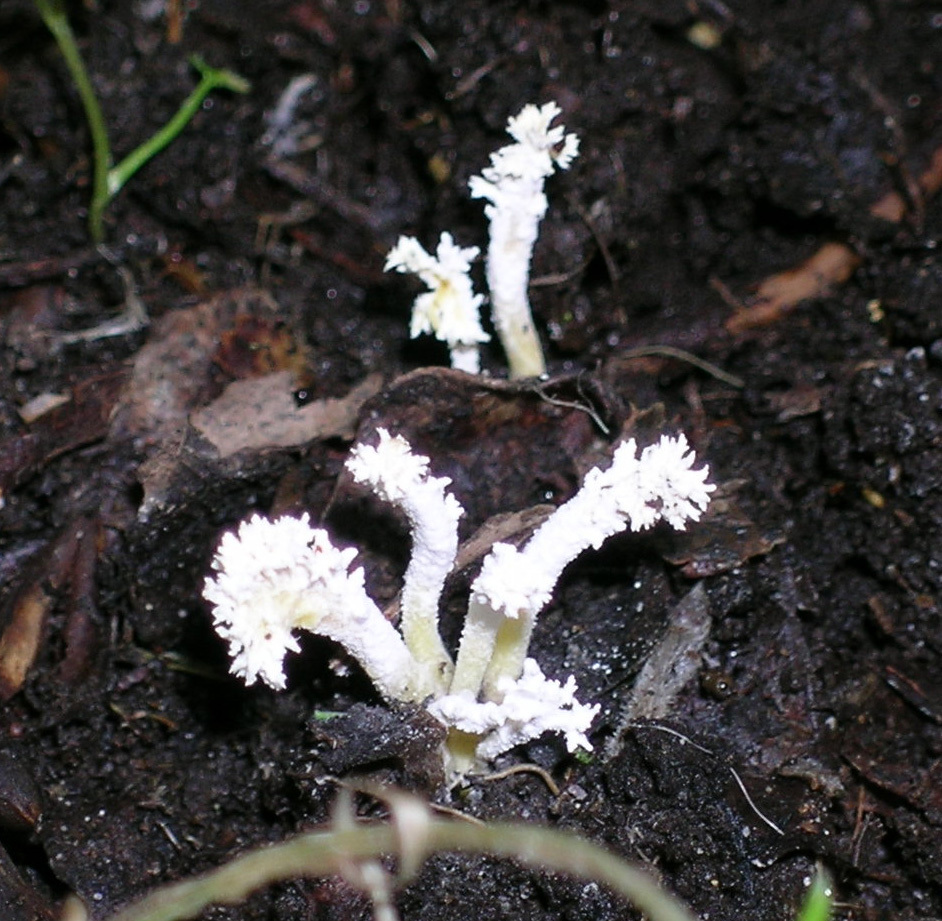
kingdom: Fungi
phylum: Ascomycota
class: Sordariomycetes
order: Hypocreales
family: Cordycipitaceae
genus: Cordyceps
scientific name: Cordyceps tenuipes
